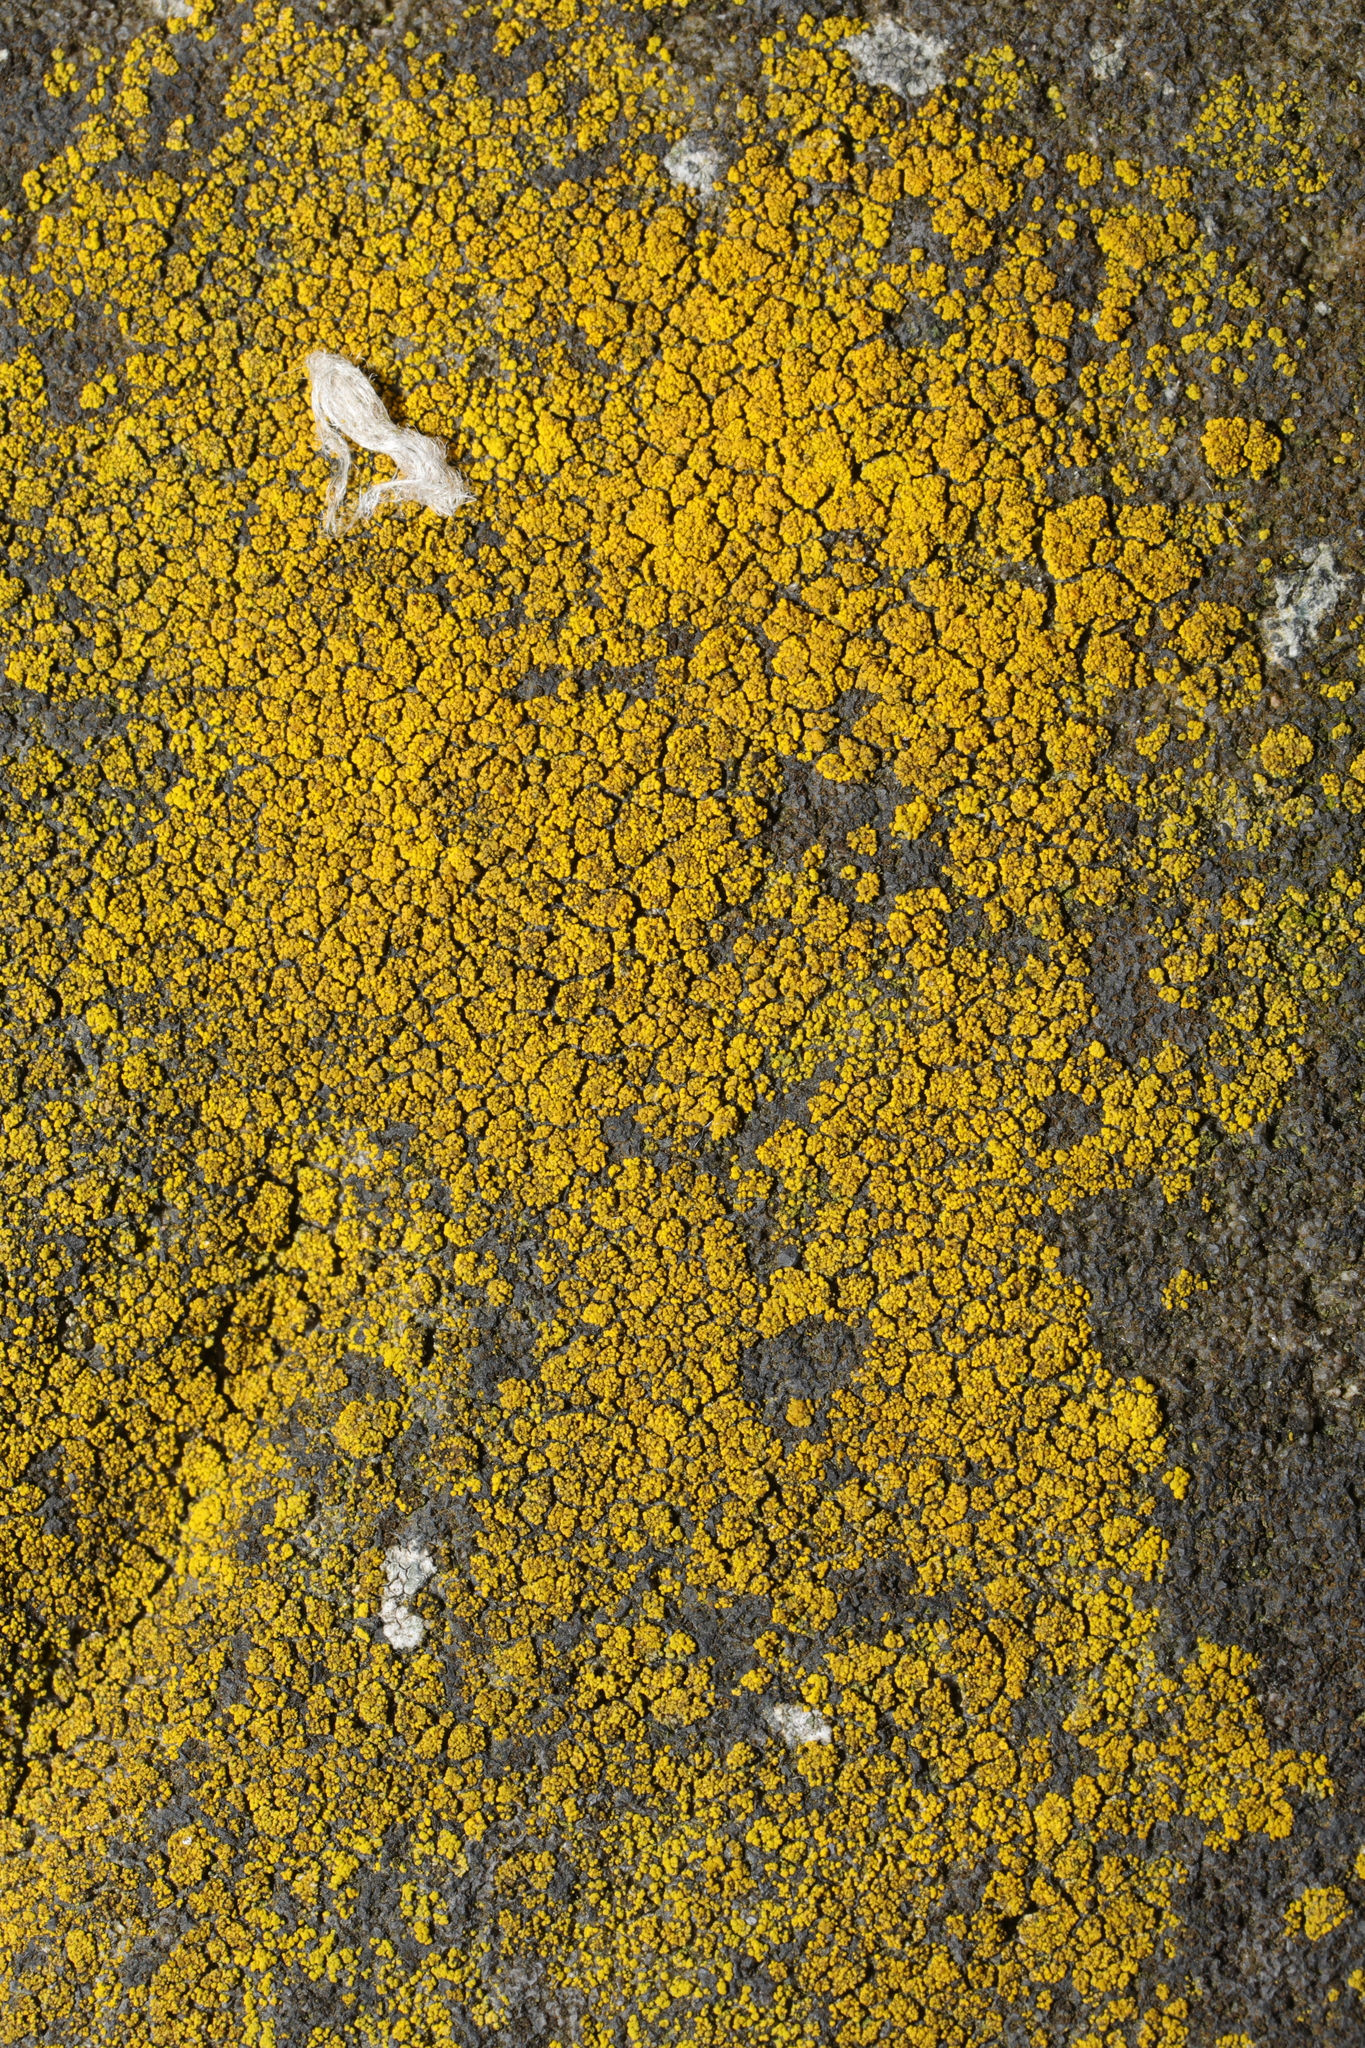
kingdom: Fungi
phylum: Ascomycota
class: Candelariomycetes
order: Candelariales
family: Candelariaceae
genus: Candelariella
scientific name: Candelariella vitellina
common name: Common goldspeck
